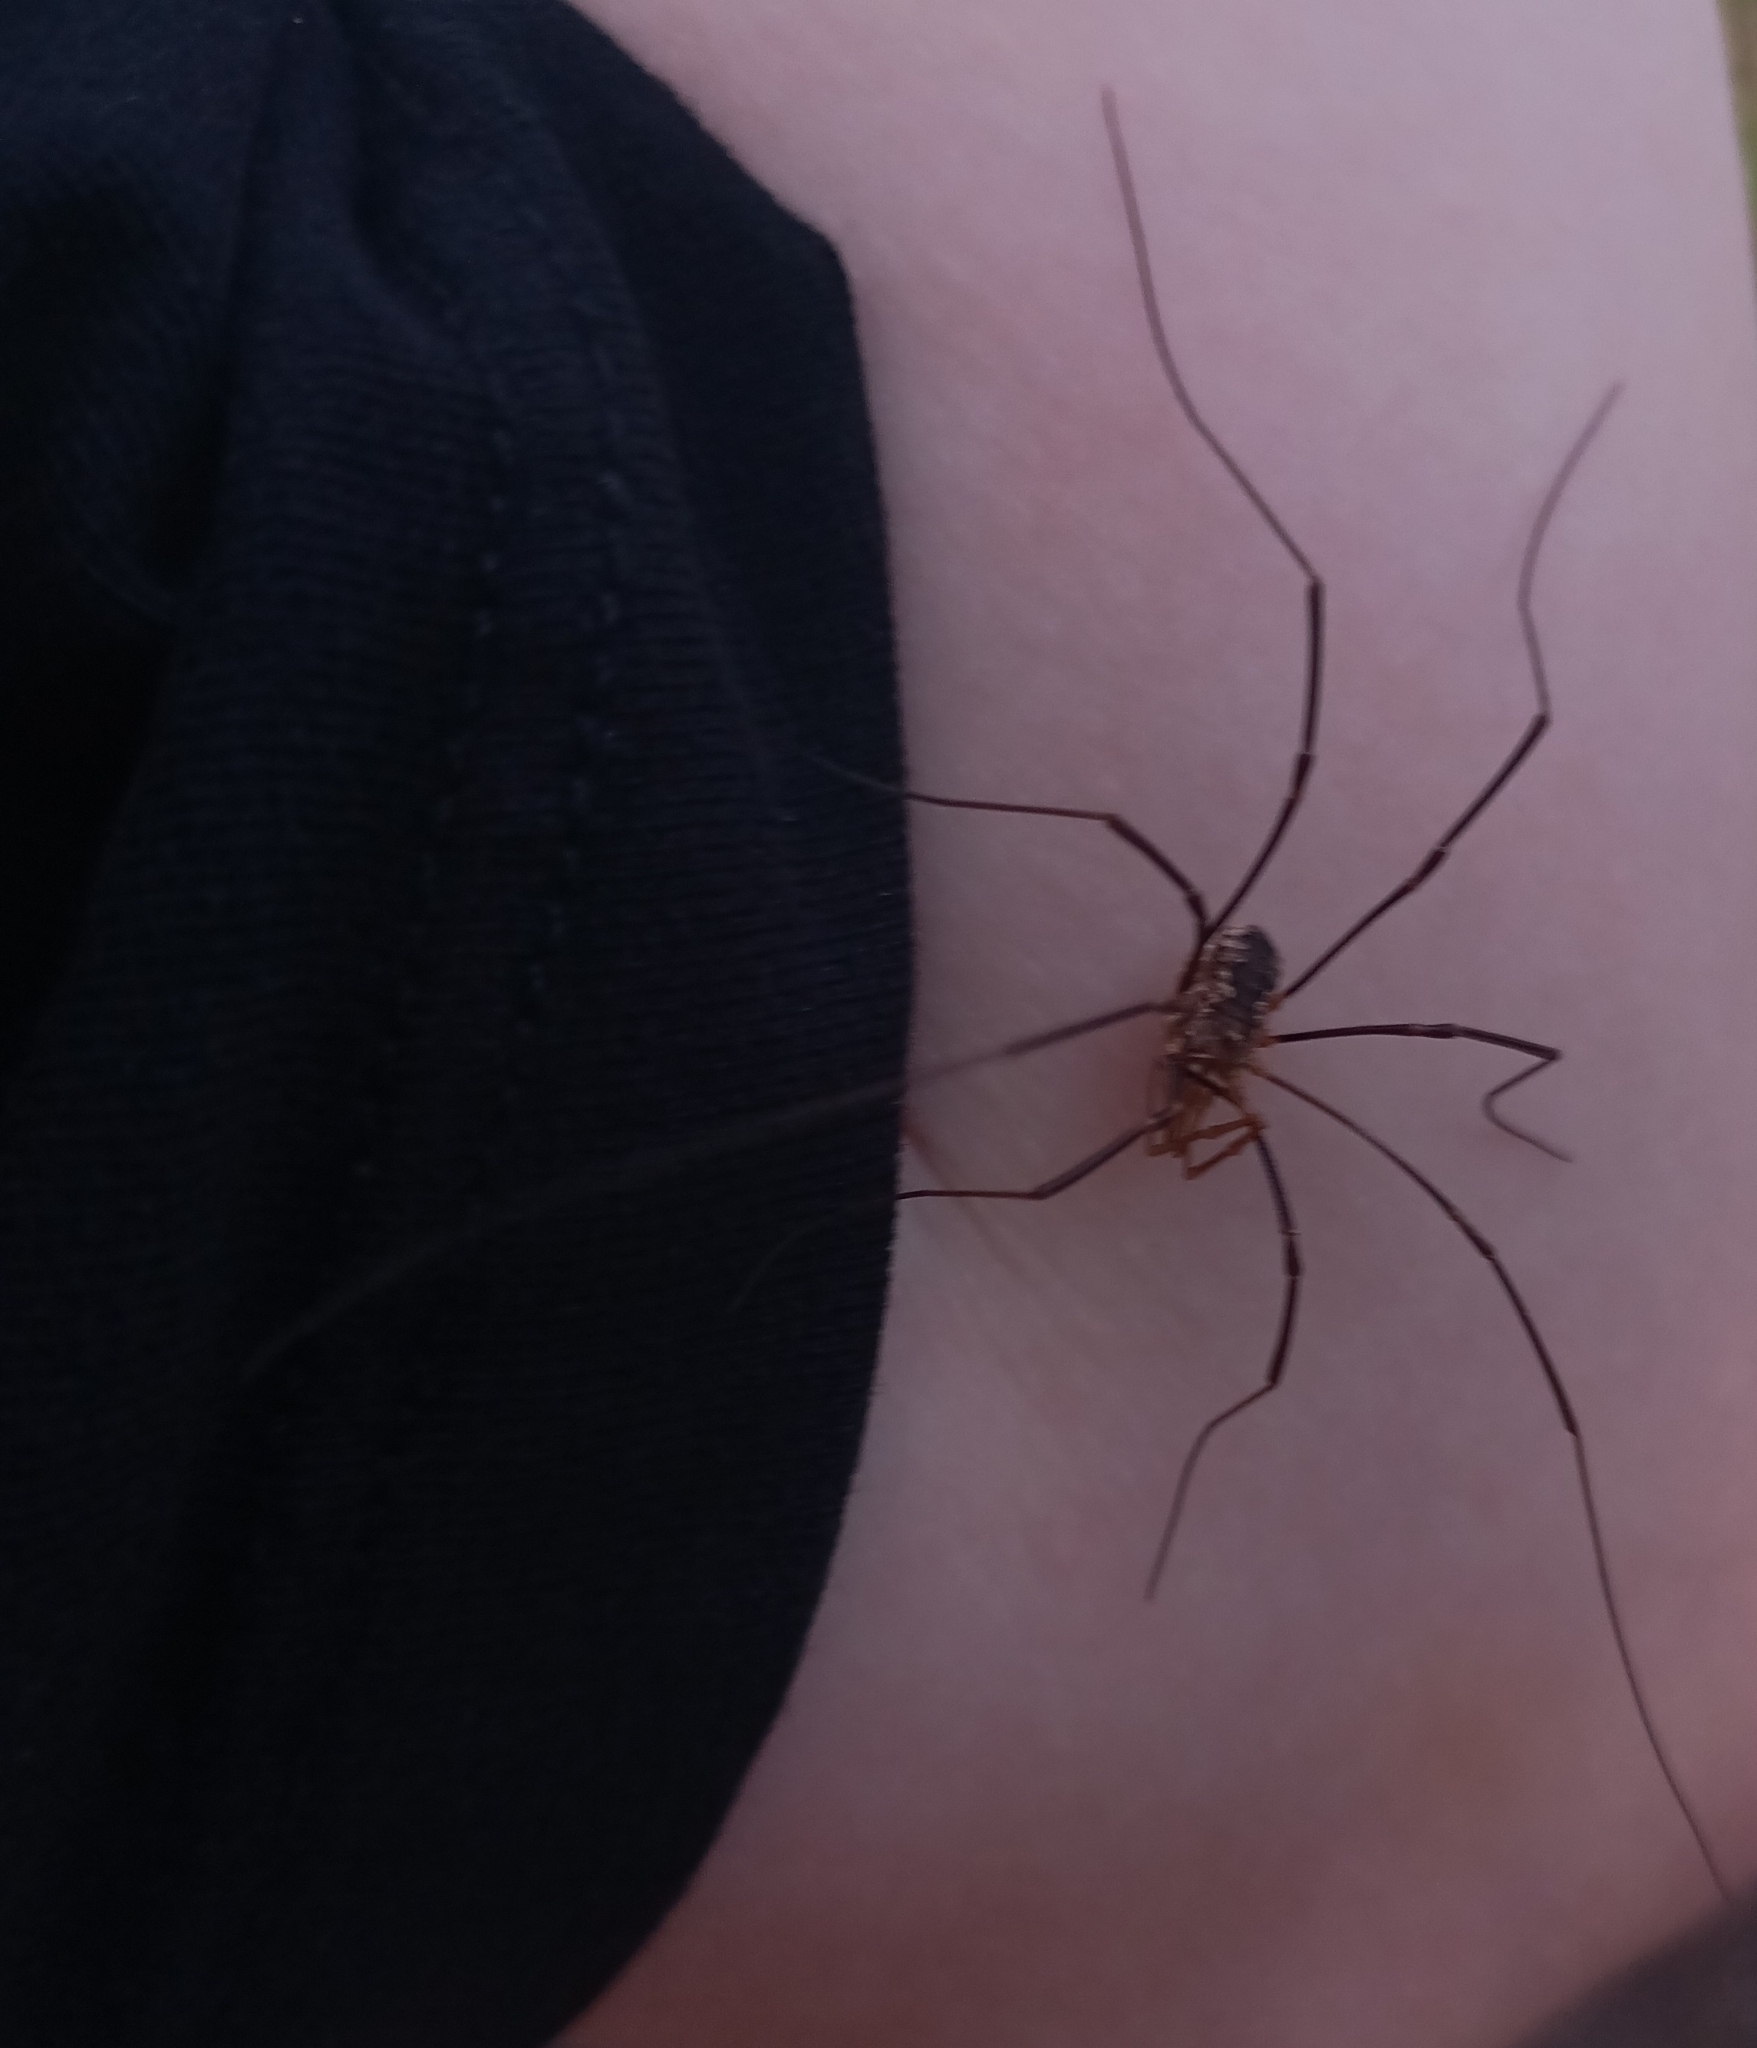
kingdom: Animalia
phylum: Arthropoda
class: Arachnida
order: Opiliones
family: Phalangiidae
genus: Phalangium
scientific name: Phalangium opilio
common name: Daddy longleg
